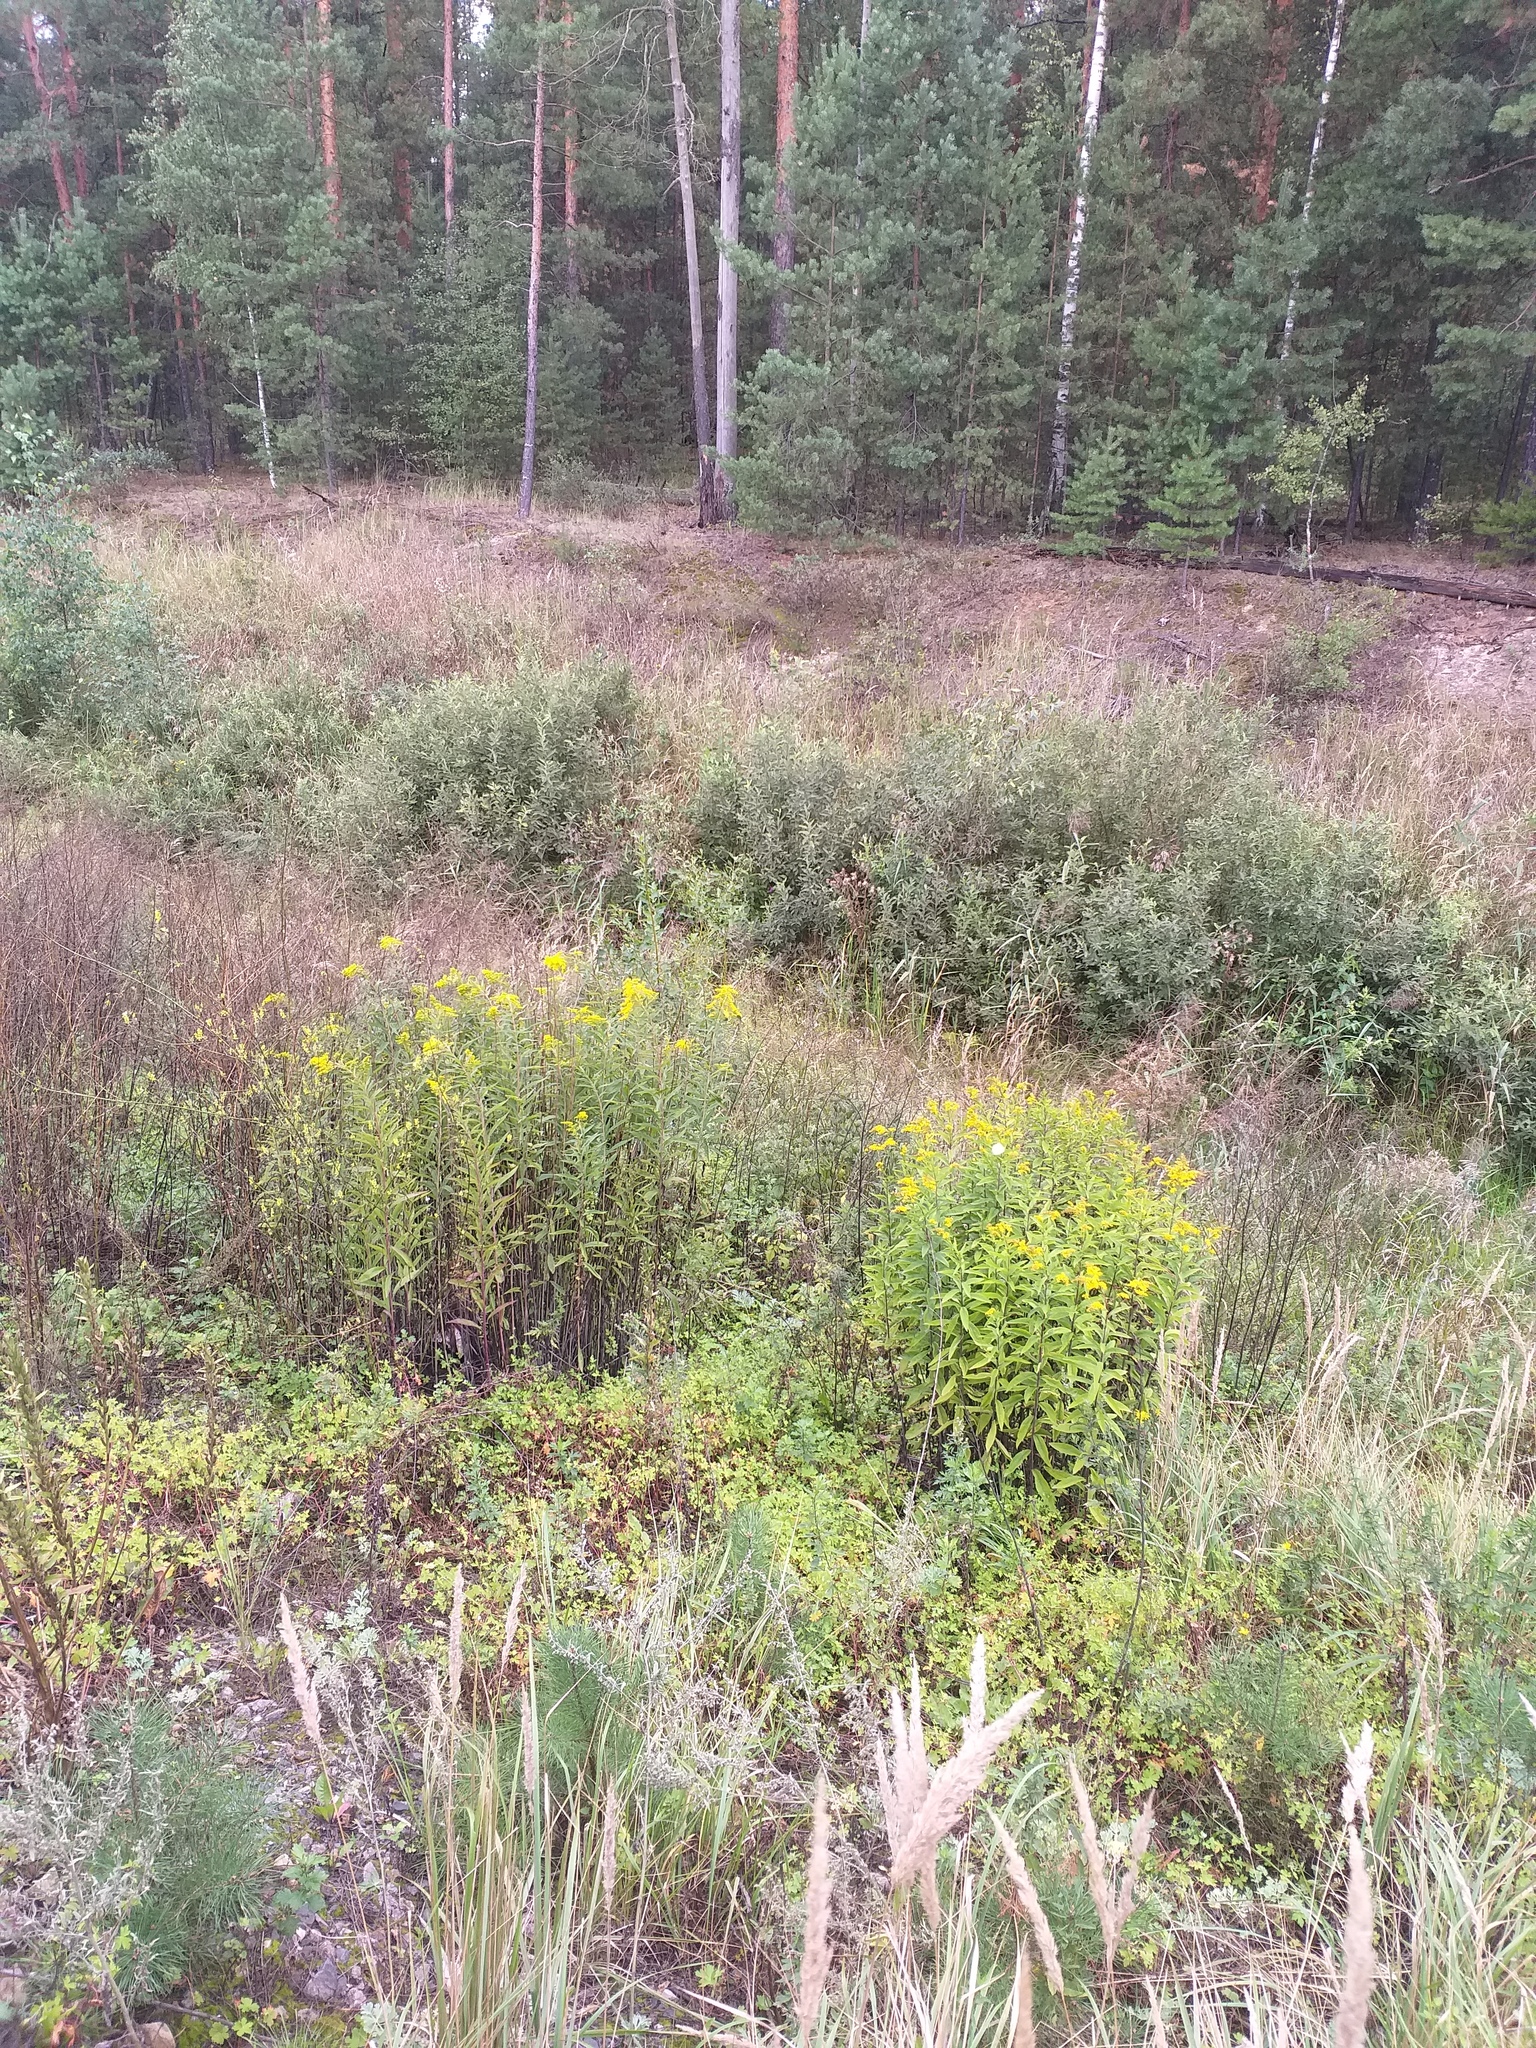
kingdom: Plantae
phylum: Tracheophyta
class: Magnoliopsida
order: Asterales
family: Asteraceae
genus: Solidago
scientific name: Solidago gigantea
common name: Giant goldenrod
